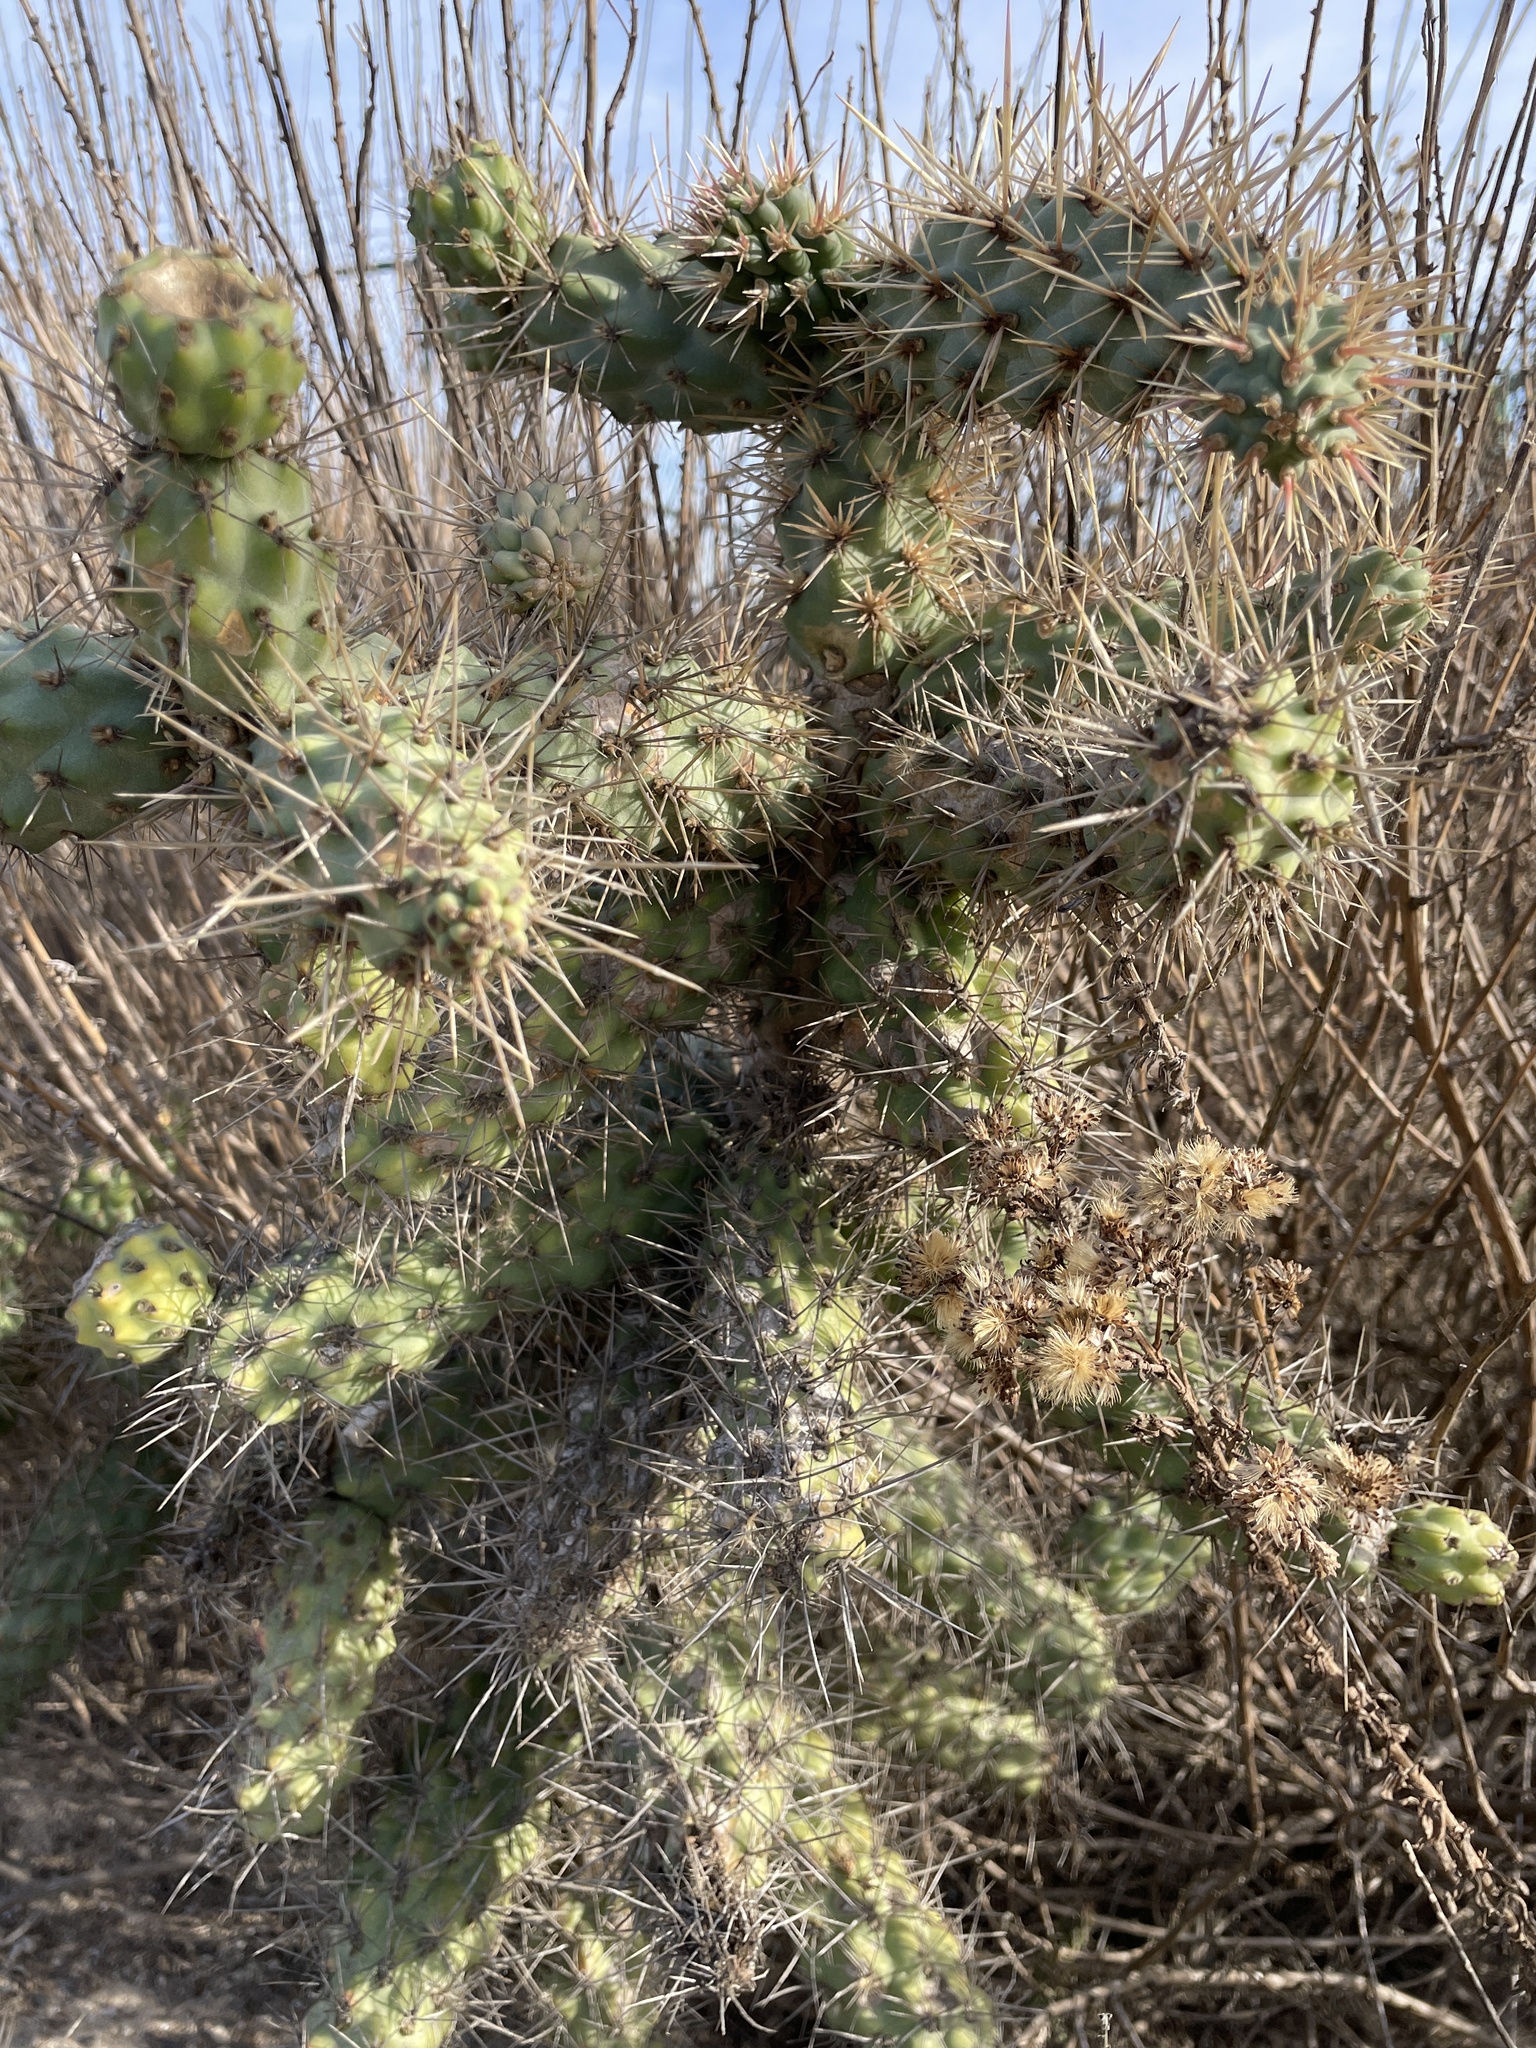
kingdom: Plantae
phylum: Tracheophyta
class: Magnoliopsida
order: Caryophyllales
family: Cactaceae
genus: Cylindropuntia
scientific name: Cylindropuntia prolifera
